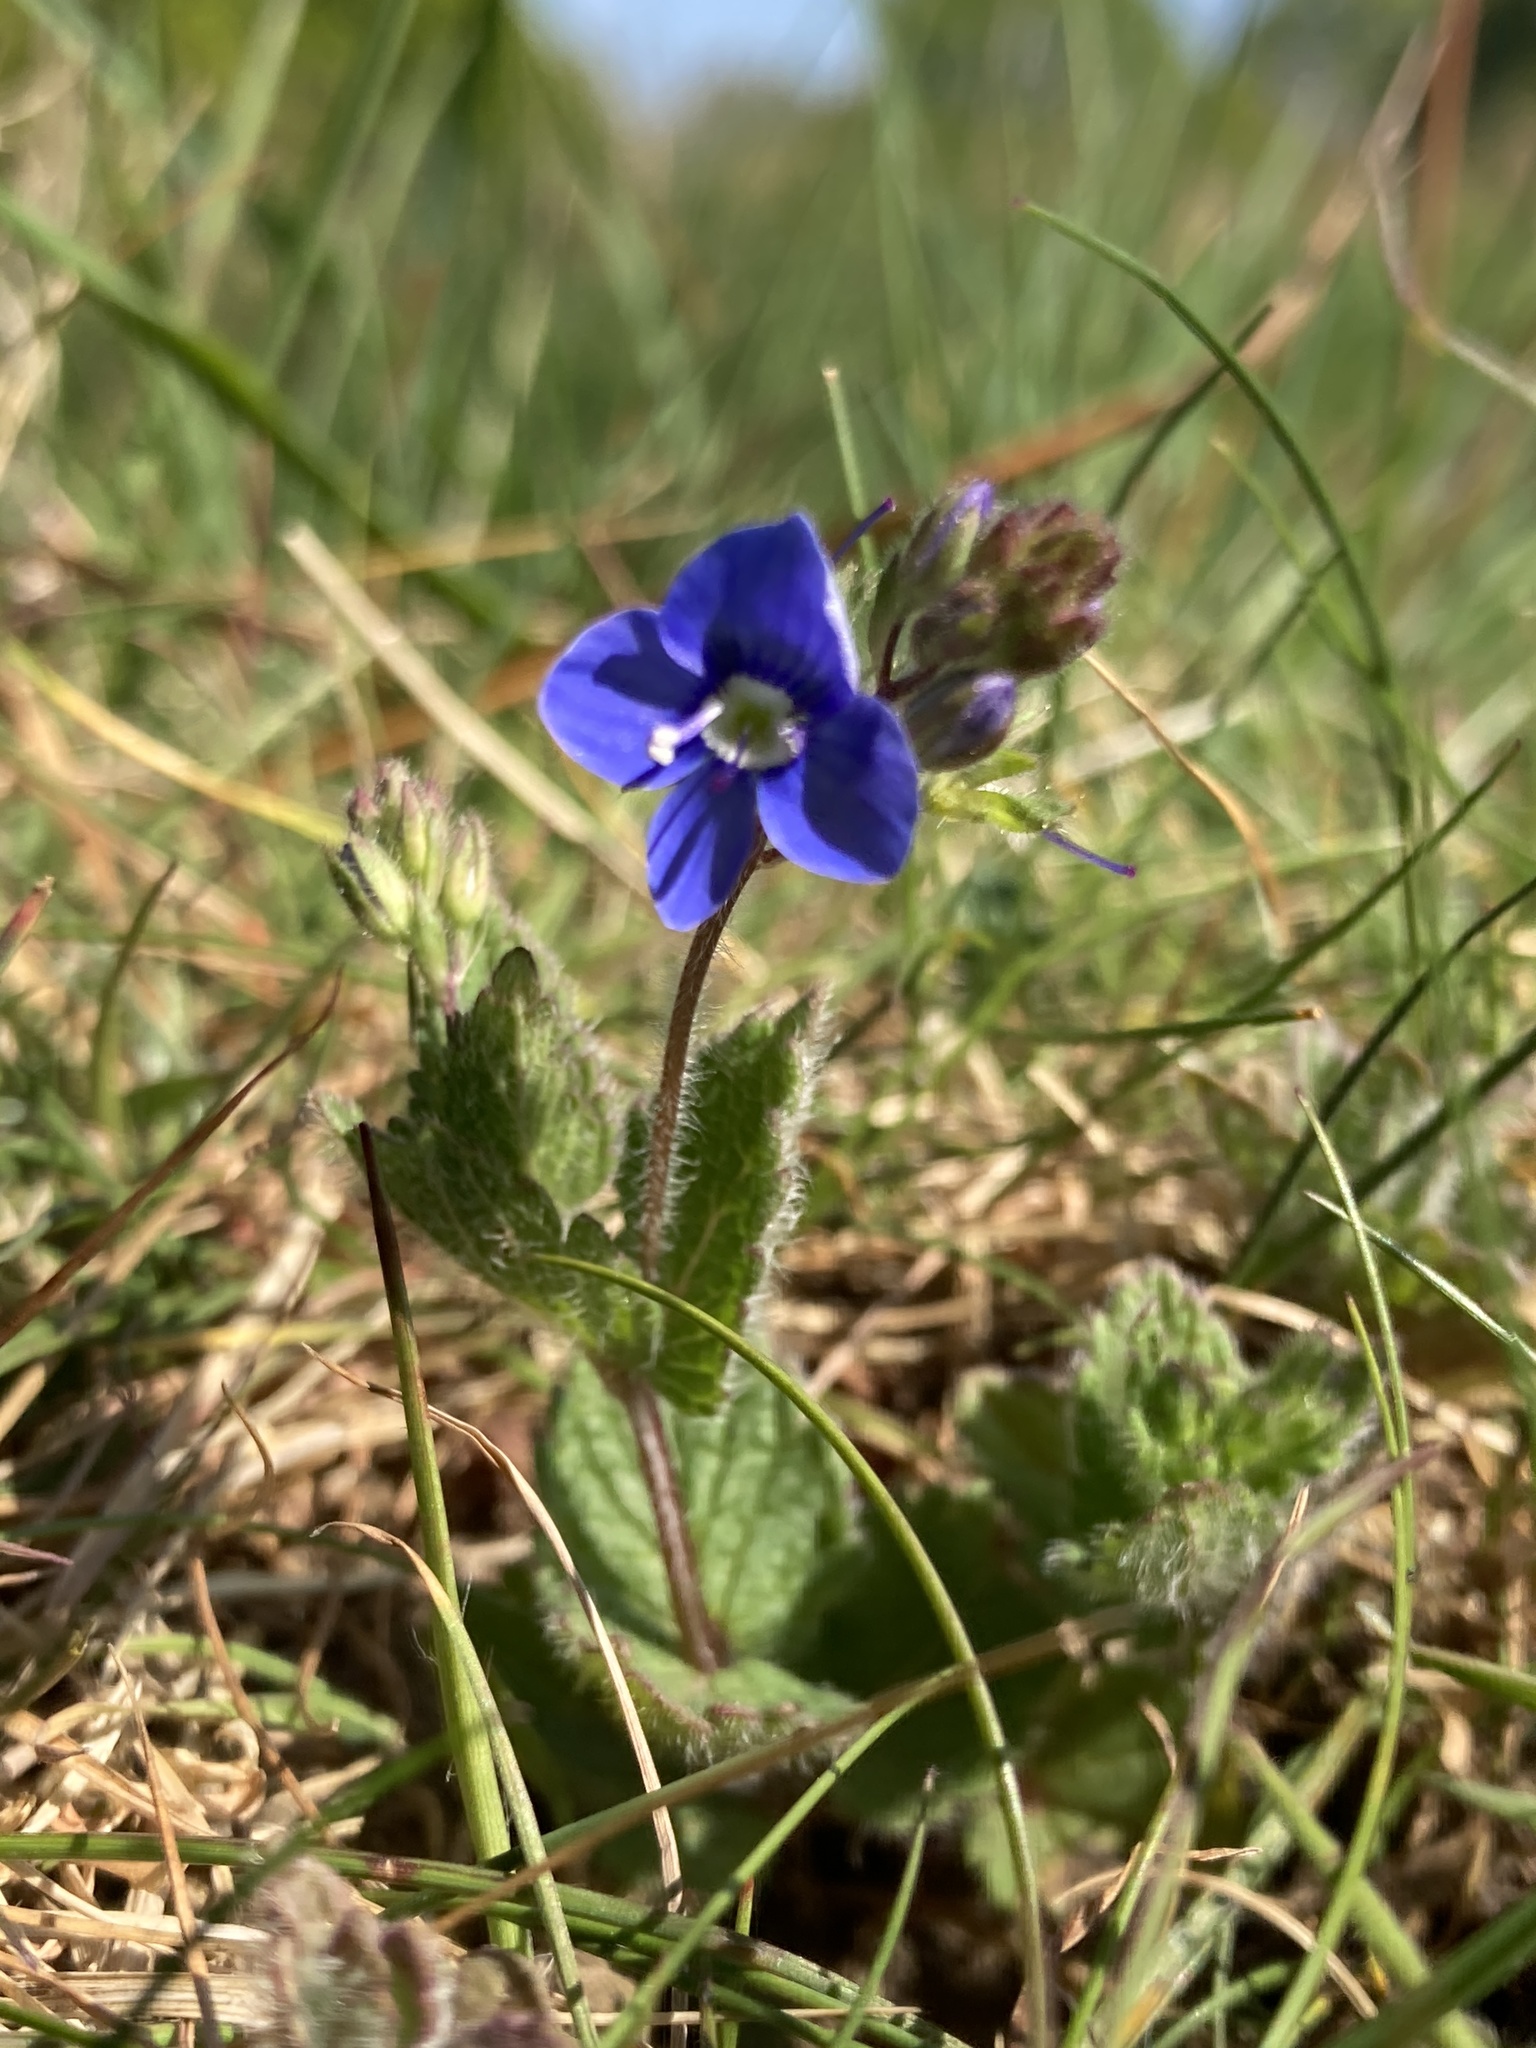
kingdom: Plantae
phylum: Tracheophyta
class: Magnoliopsida
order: Lamiales
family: Plantaginaceae
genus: Veronica
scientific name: Veronica chamaedrys
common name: Germander speedwell
